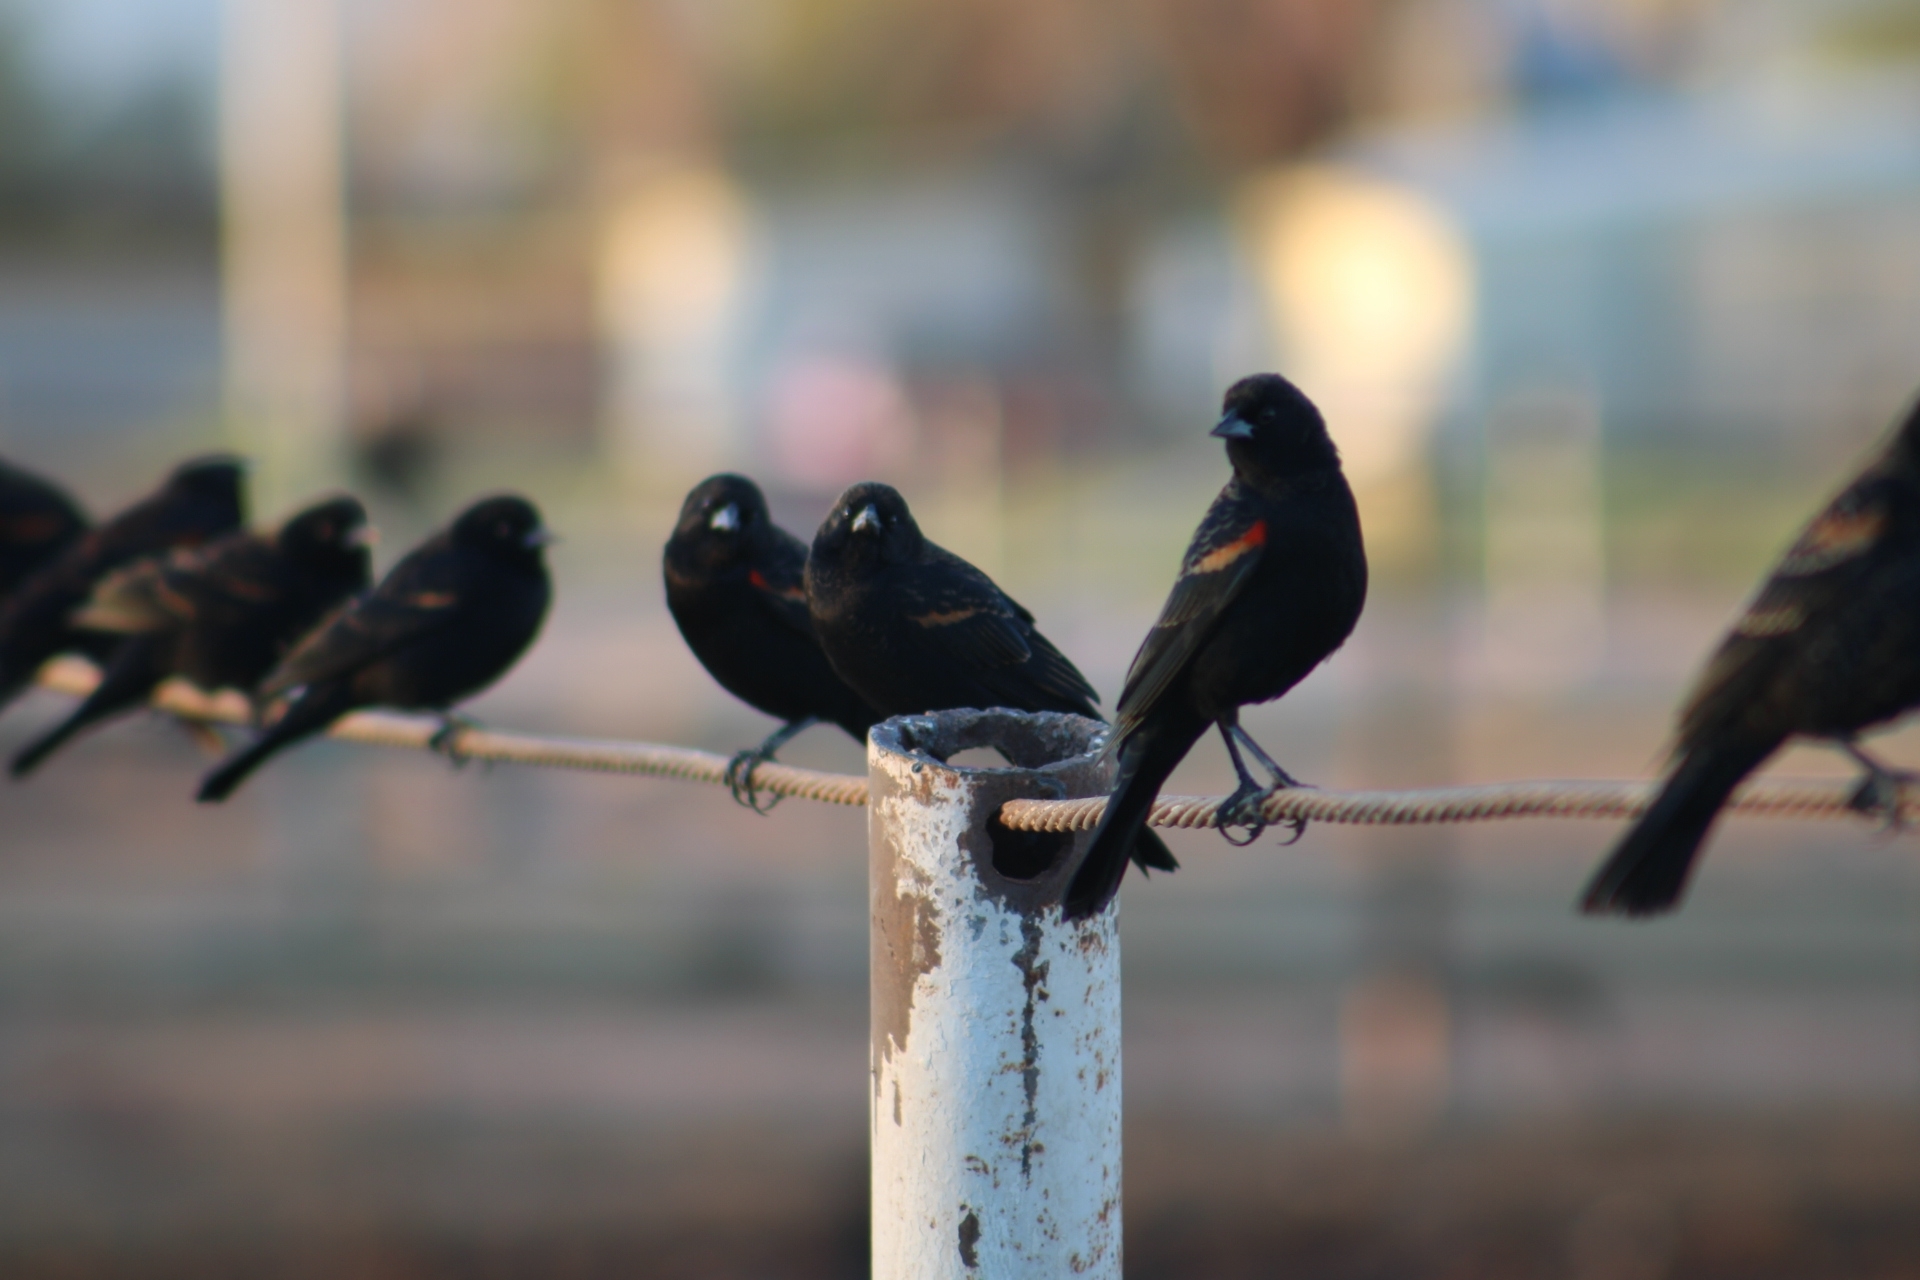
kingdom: Animalia
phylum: Chordata
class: Aves
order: Passeriformes
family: Icteridae
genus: Agelaius
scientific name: Agelaius phoeniceus
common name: Red-winged blackbird
